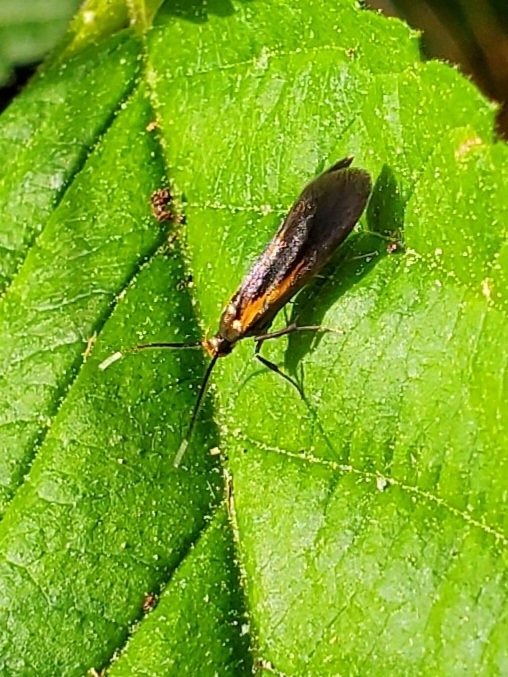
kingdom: Animalia
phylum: Arthropoda
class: Insecta
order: Lepidoptera
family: Oecophoridae
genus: Mathildana
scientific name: Mathildana newmanella
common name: Newman's mathildana moth
